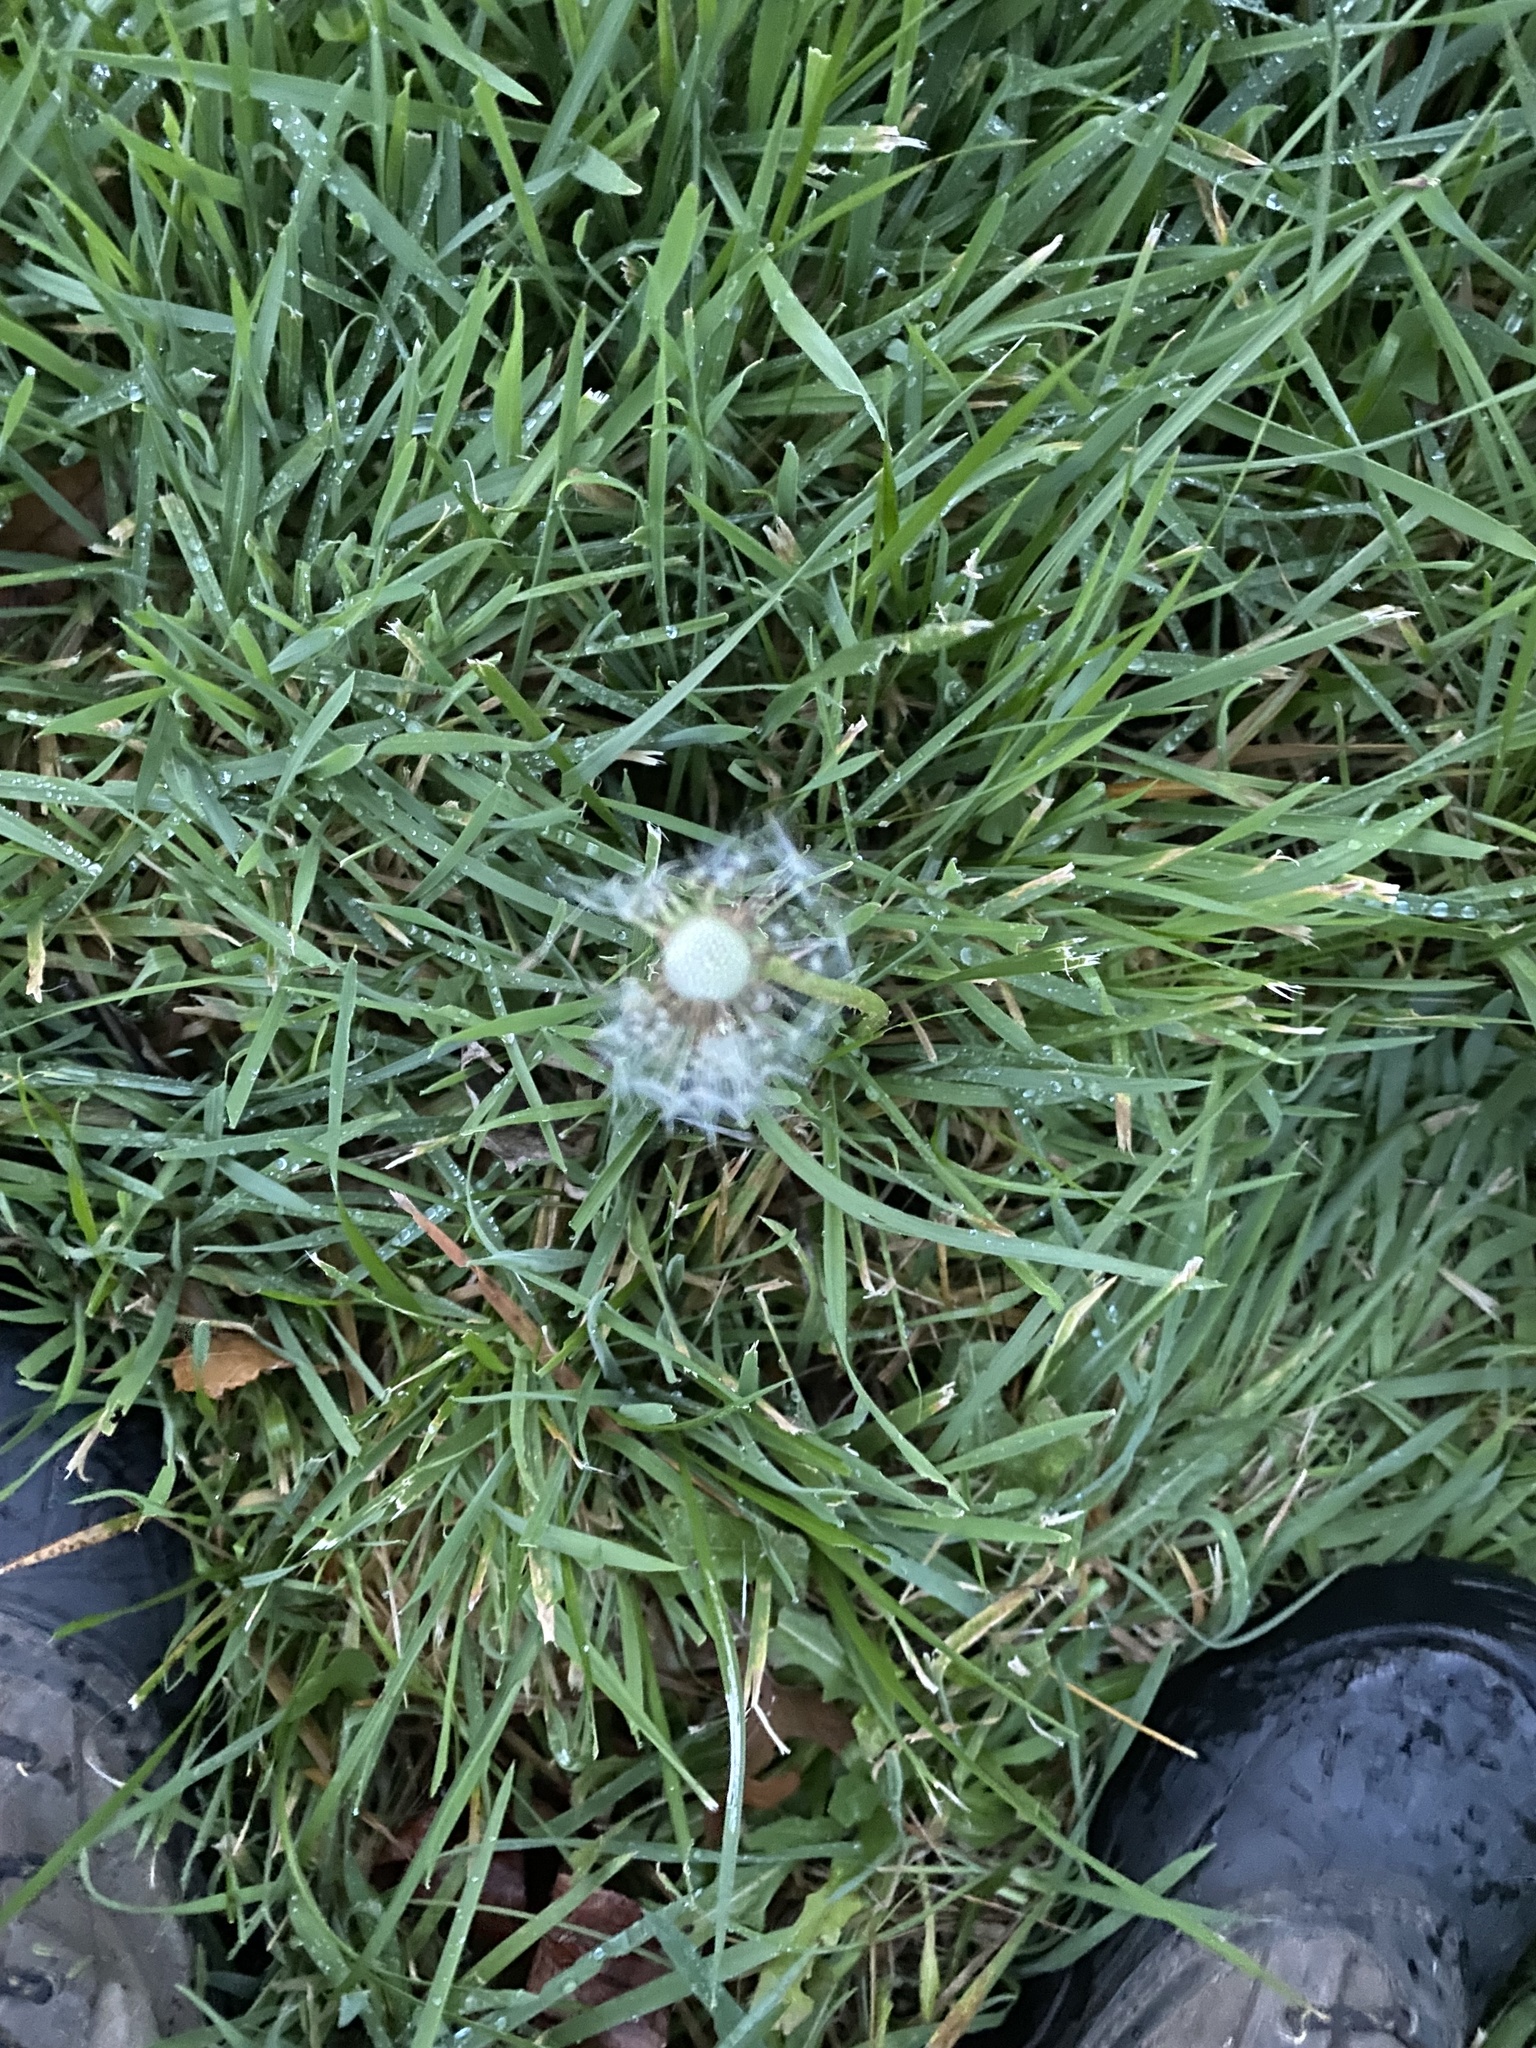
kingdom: Plantae
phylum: Tracheophyta
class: Magnoliopsida
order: Asterales
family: Asteraceae
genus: Taraxacum
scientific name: Taraxacum officinale
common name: Common dandelion
